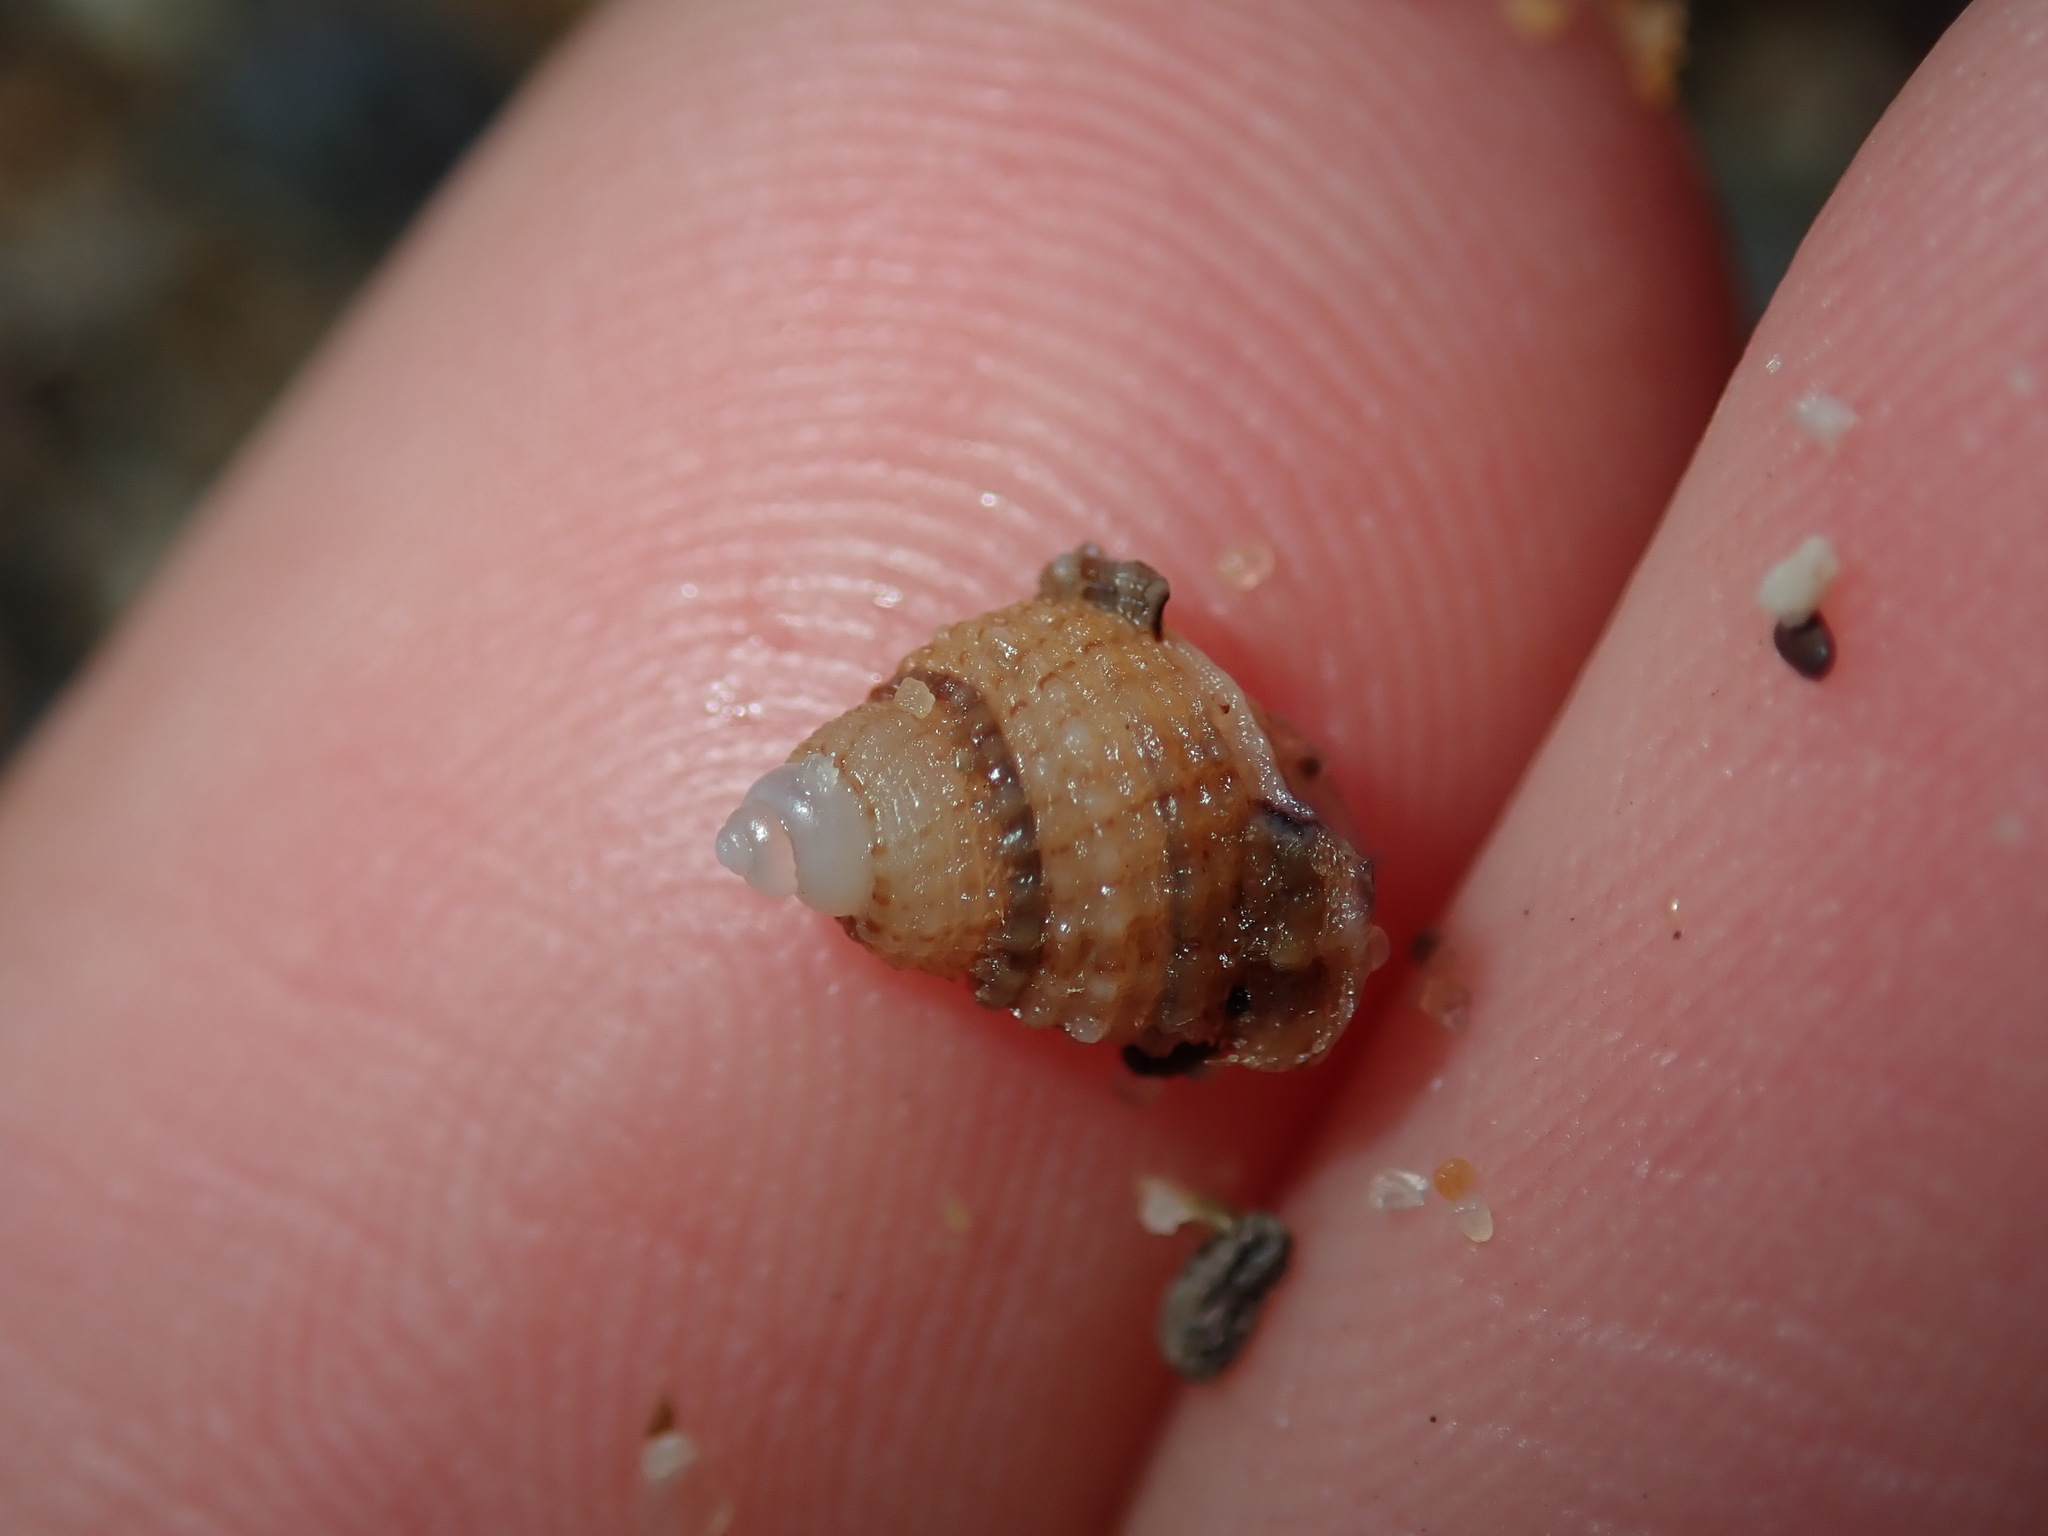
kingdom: Animalia
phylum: Mollusca
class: Gastropoda
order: Neogastropoda
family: Nassariidae
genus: Nassarius
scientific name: Nassarius pauperatus
